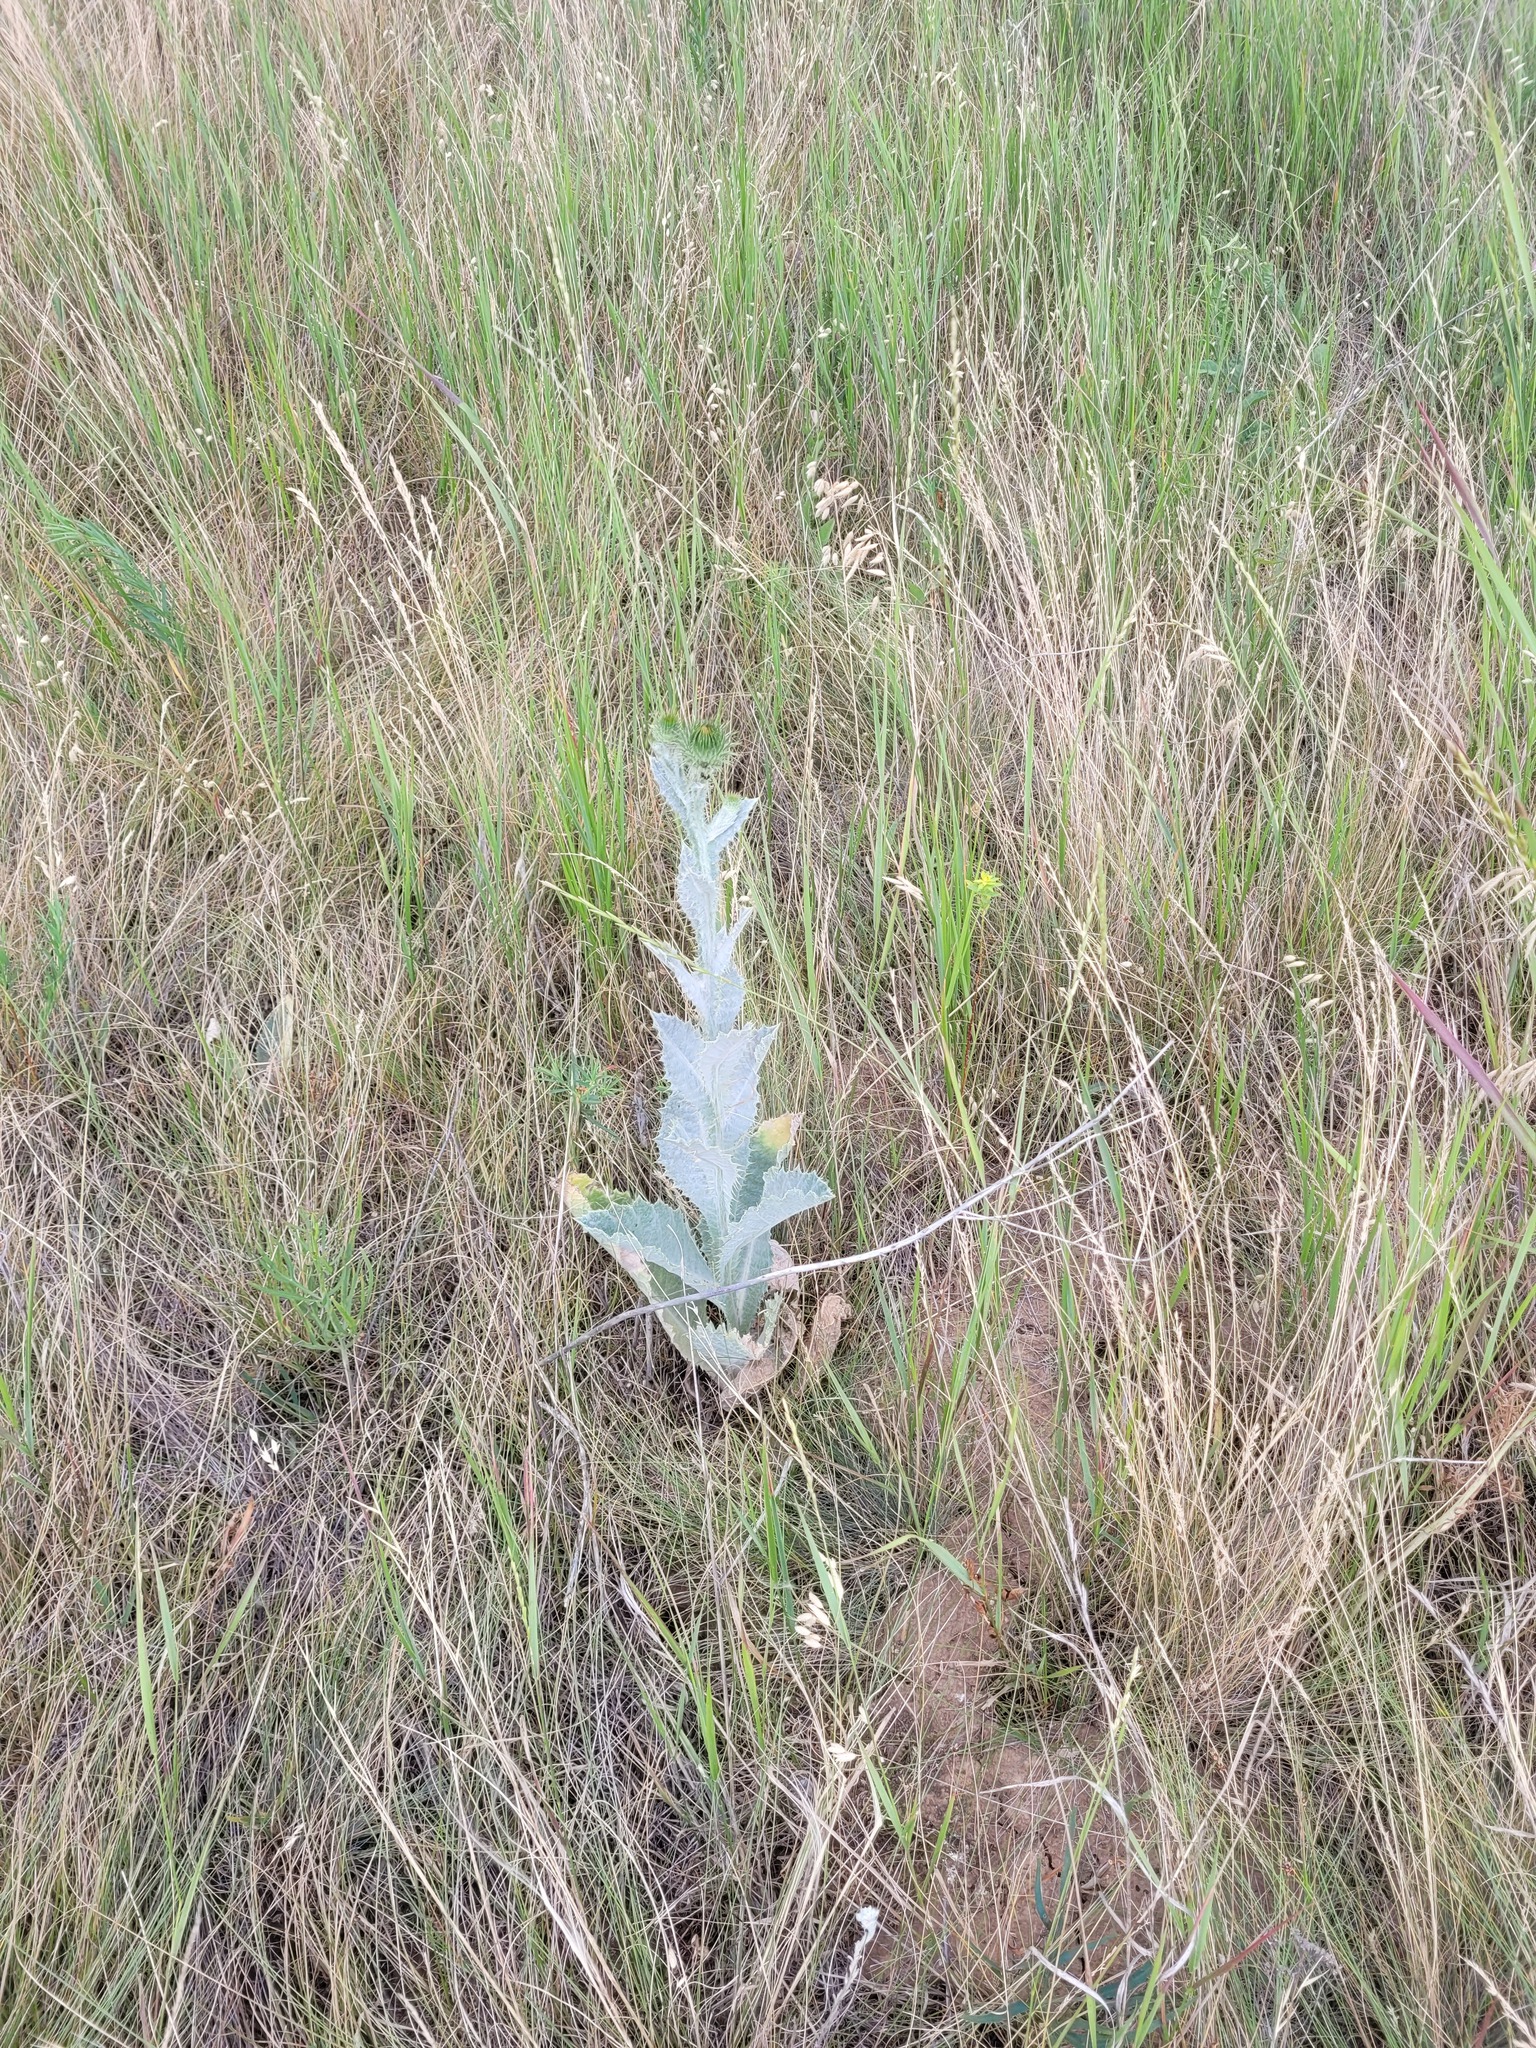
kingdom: Plantae
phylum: Tracheophyta
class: Magnoliopsida
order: Asterales
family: Asteraceae
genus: Onopordum
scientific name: Onopordum acanthium
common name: Scotch thistle
